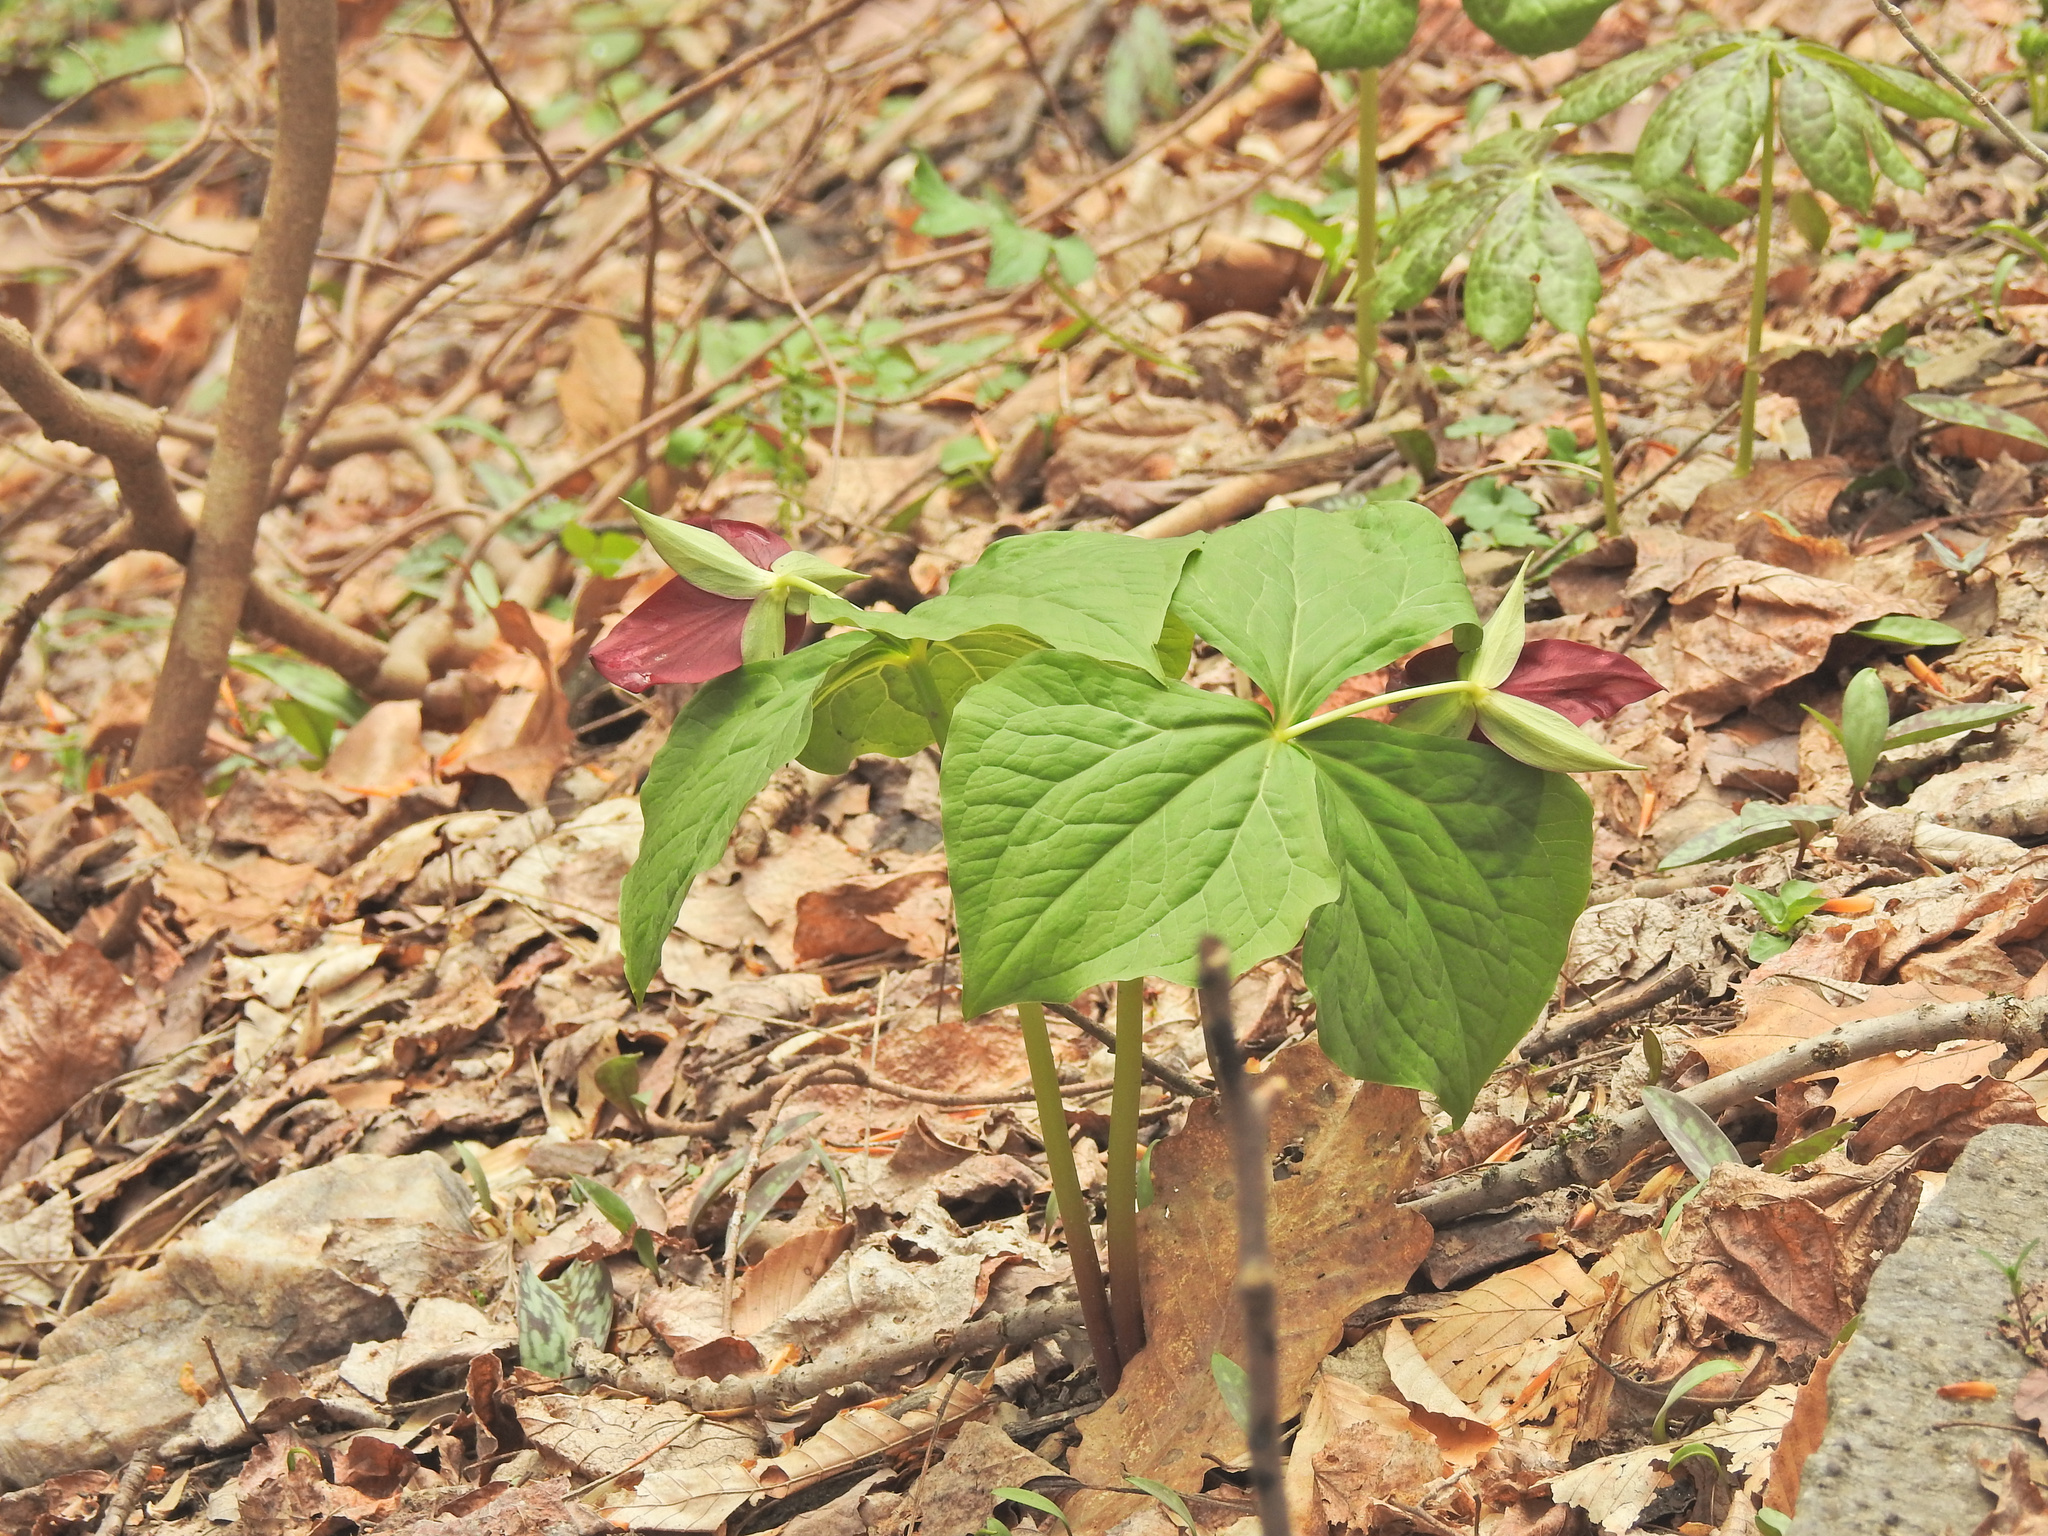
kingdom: Plantae
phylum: Tracheophyta
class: Liliopsida
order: Liliales
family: Melanthiaceae
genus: Trillium
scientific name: Trillium erectum
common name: Purple trillium
